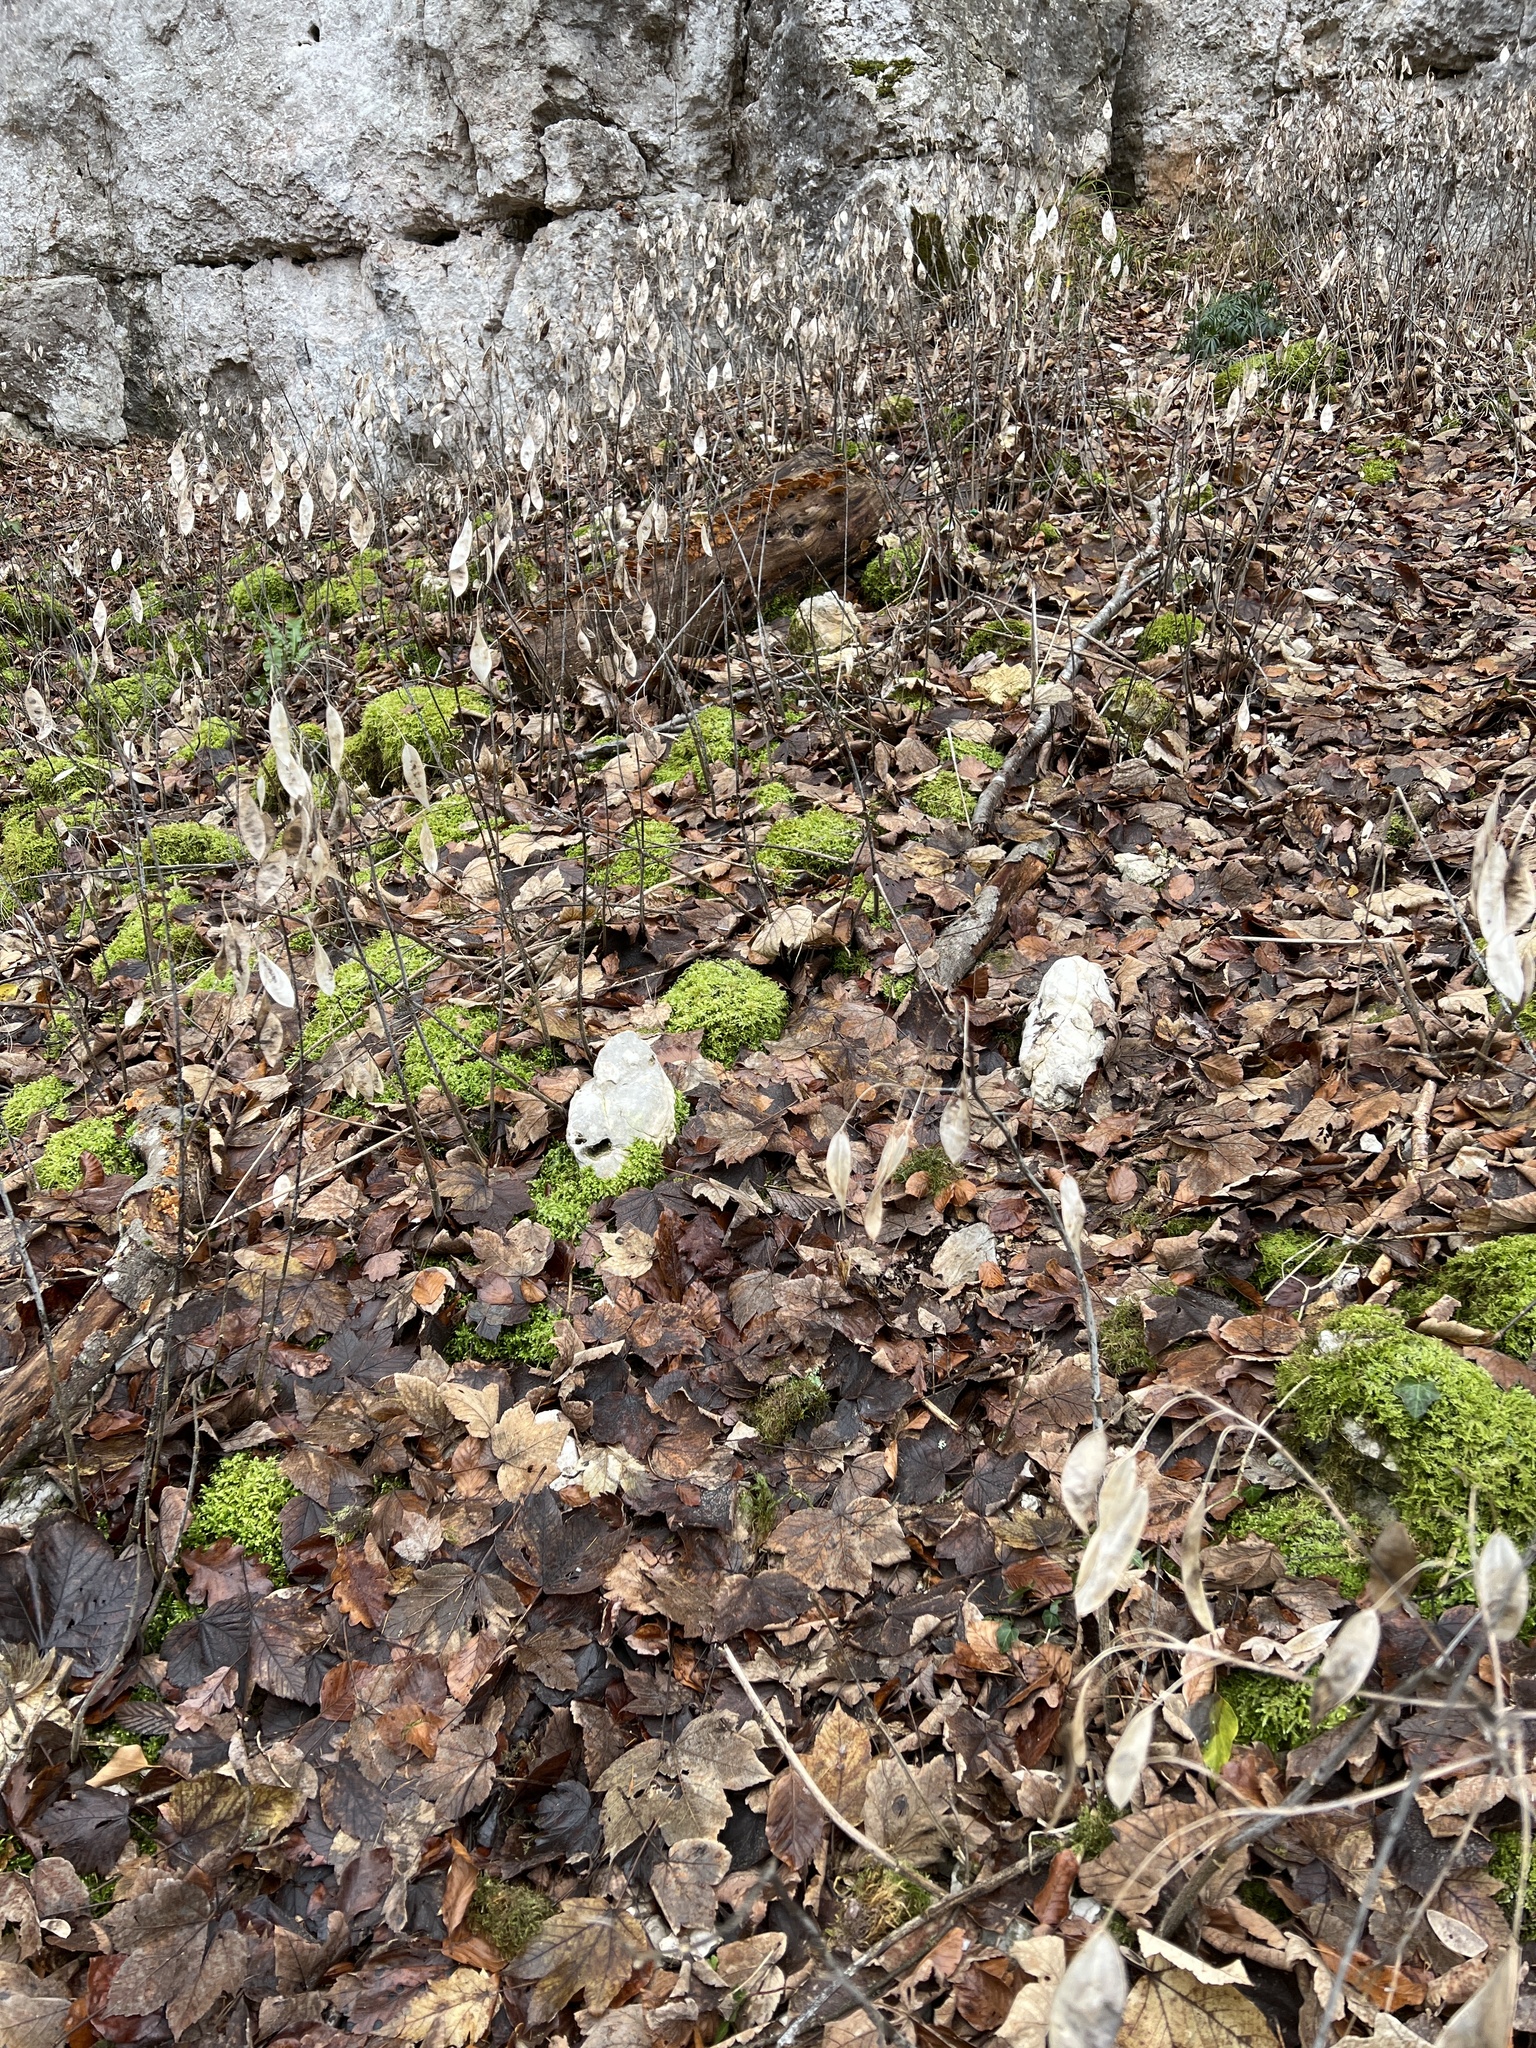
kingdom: Plantae
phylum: Tracheophyta
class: Magnoliopsida
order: Brassicales
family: Brassicaceae
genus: Lunaria
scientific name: Lunaria rediviva
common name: Perennial honesty
